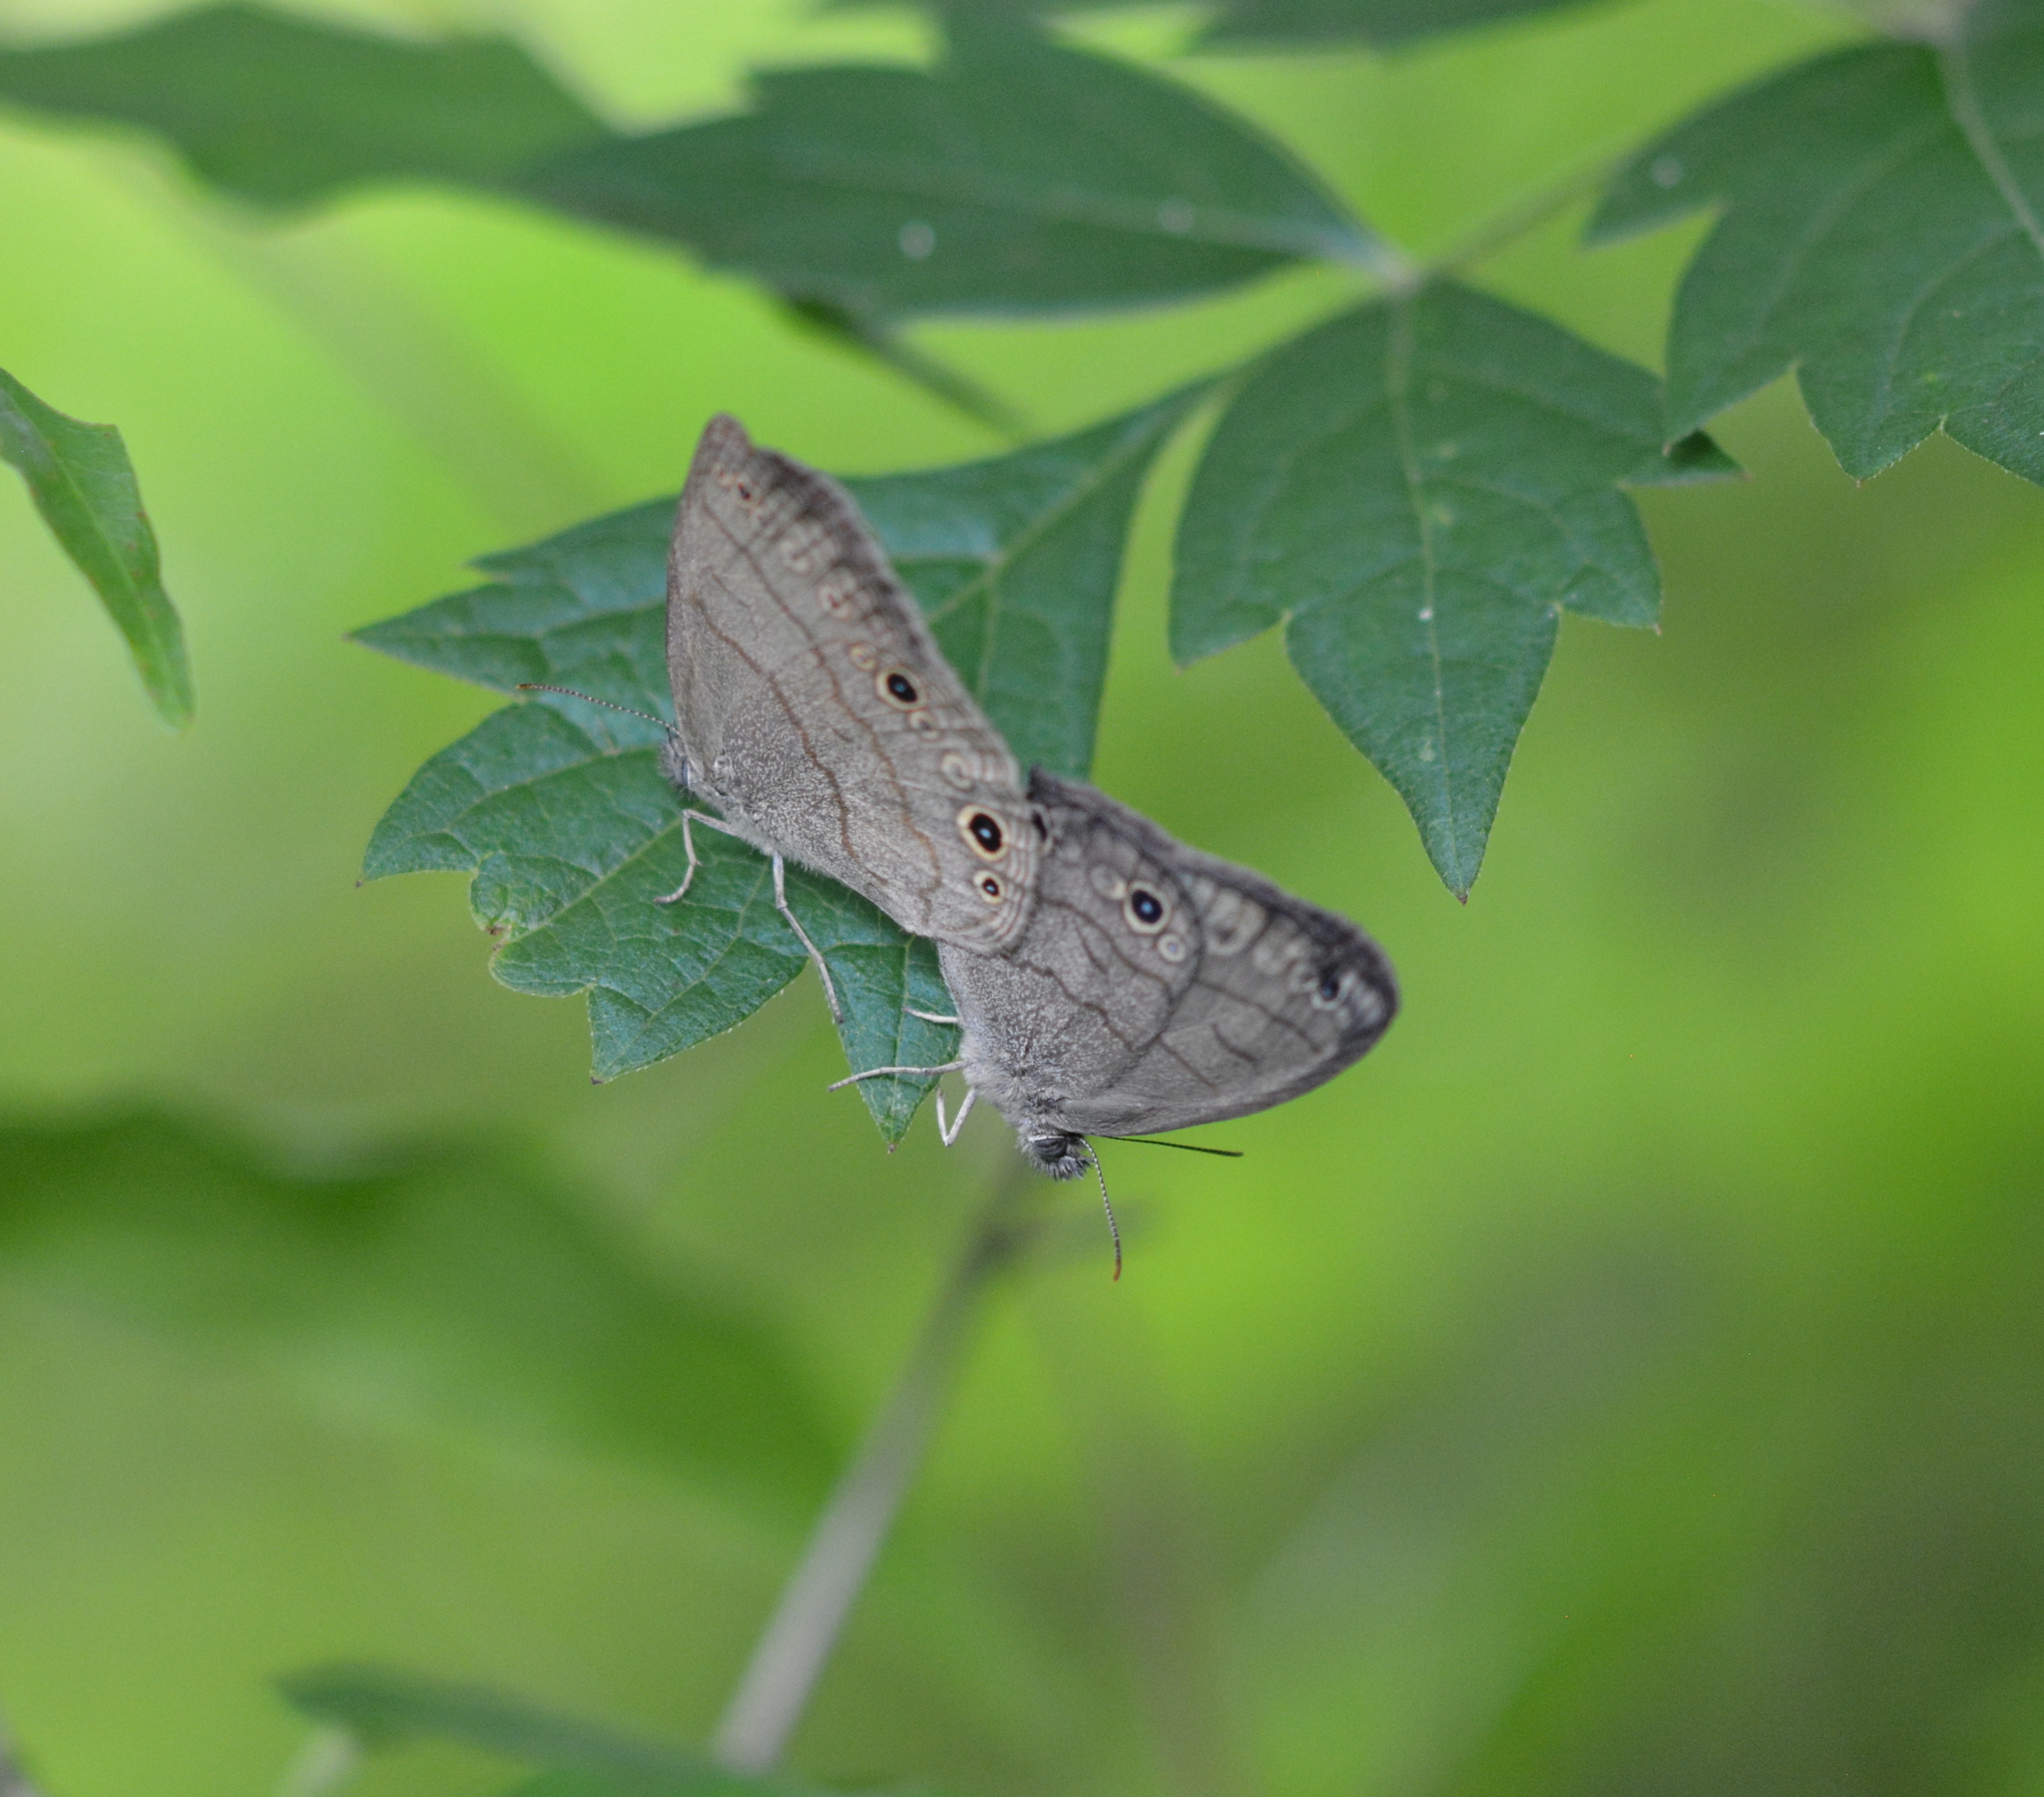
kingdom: Animalia
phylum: Arthropoda
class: Insecta
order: Lepidoptera
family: Nymphalidae
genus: Hermeuptychia
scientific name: Hermeuptychia hermes
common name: Hermes satyr
